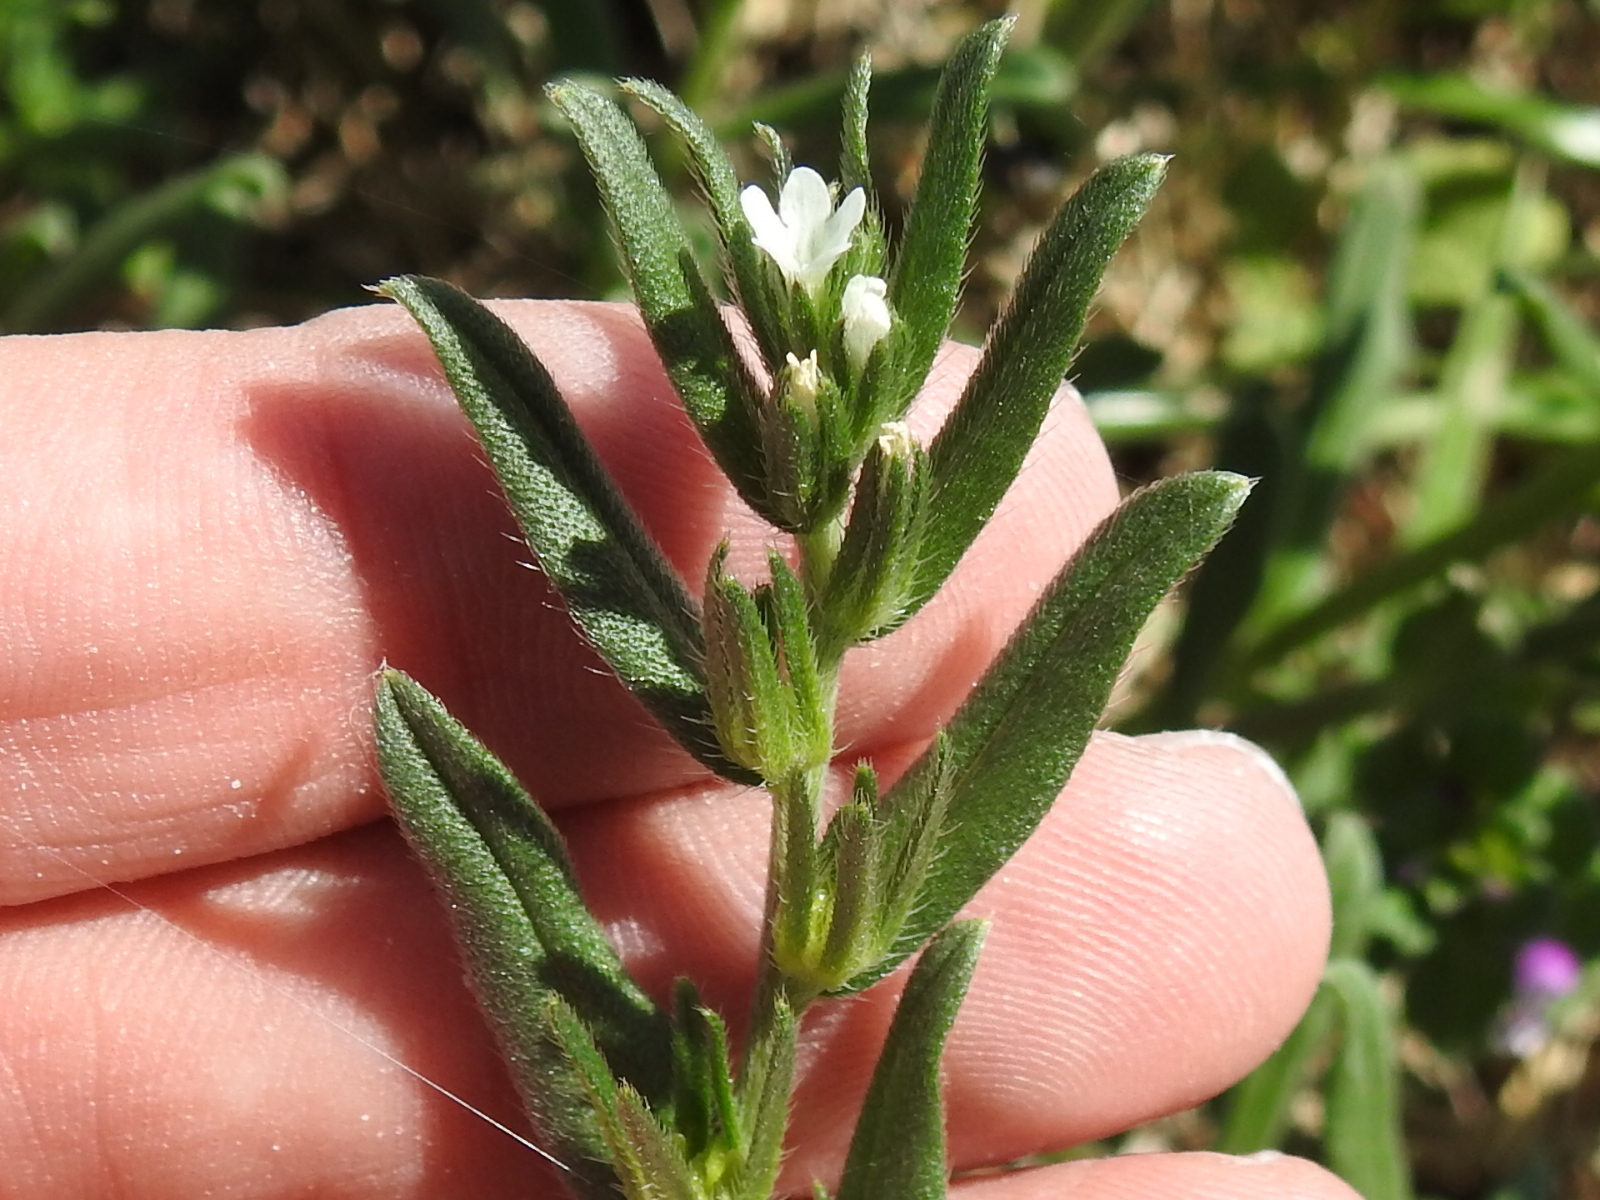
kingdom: Plantae
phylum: Tracheophyta
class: Magnoliopsida
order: Boraginales
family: Boraginaceae
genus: Buglossoides
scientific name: Buglossoides arvensis
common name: Corn gromwell
